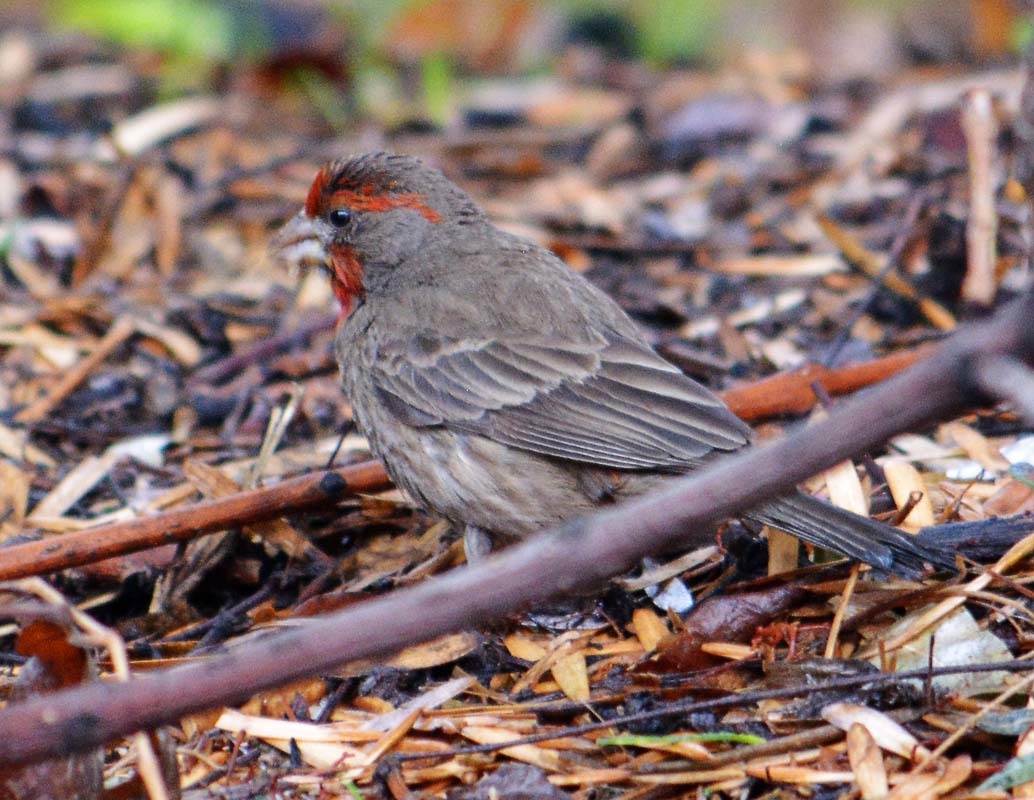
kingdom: Animalia
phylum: Chordata
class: Aves
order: Passeriformes
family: Fringillidae
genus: Haemorhous
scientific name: Haemorhous mexicanus
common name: House finch
